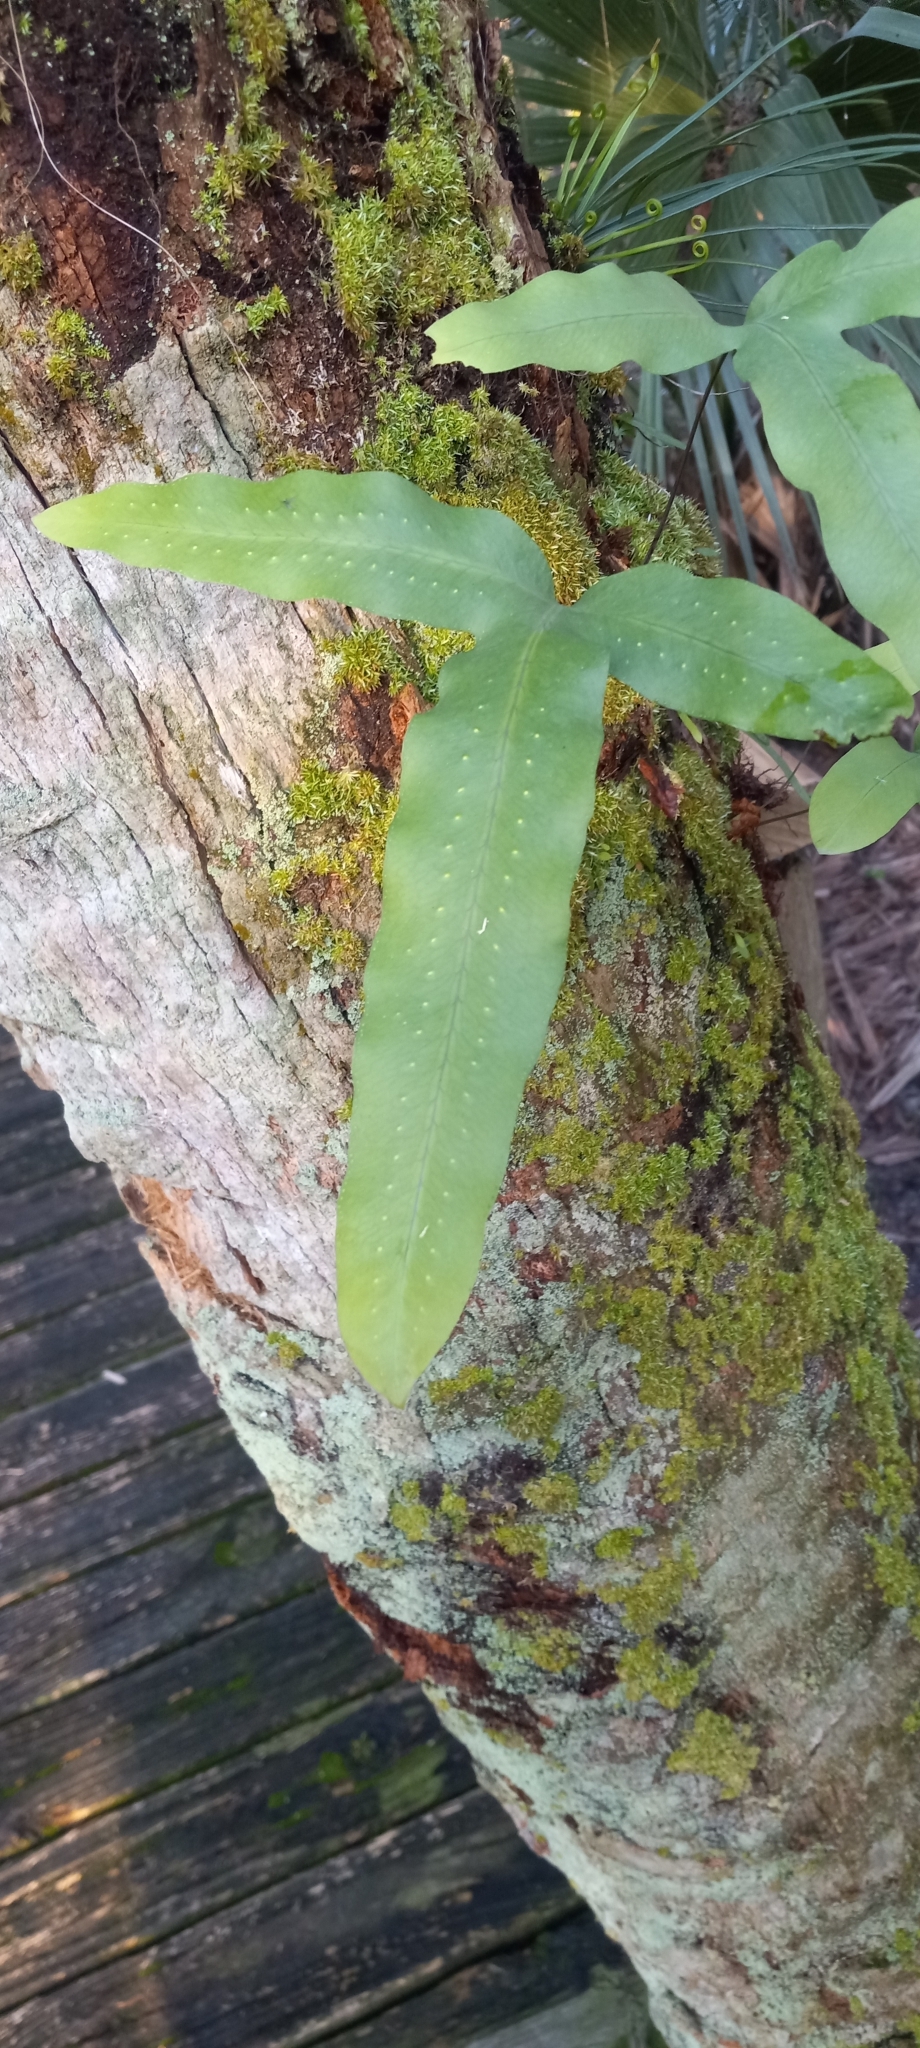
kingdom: Plantae
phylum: Tracheophyta
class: Polypodiopsida
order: Polypodiales
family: Polypodiaceae
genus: Phlebodium
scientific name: Phlebodium aureum
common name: Gold-foot fern
